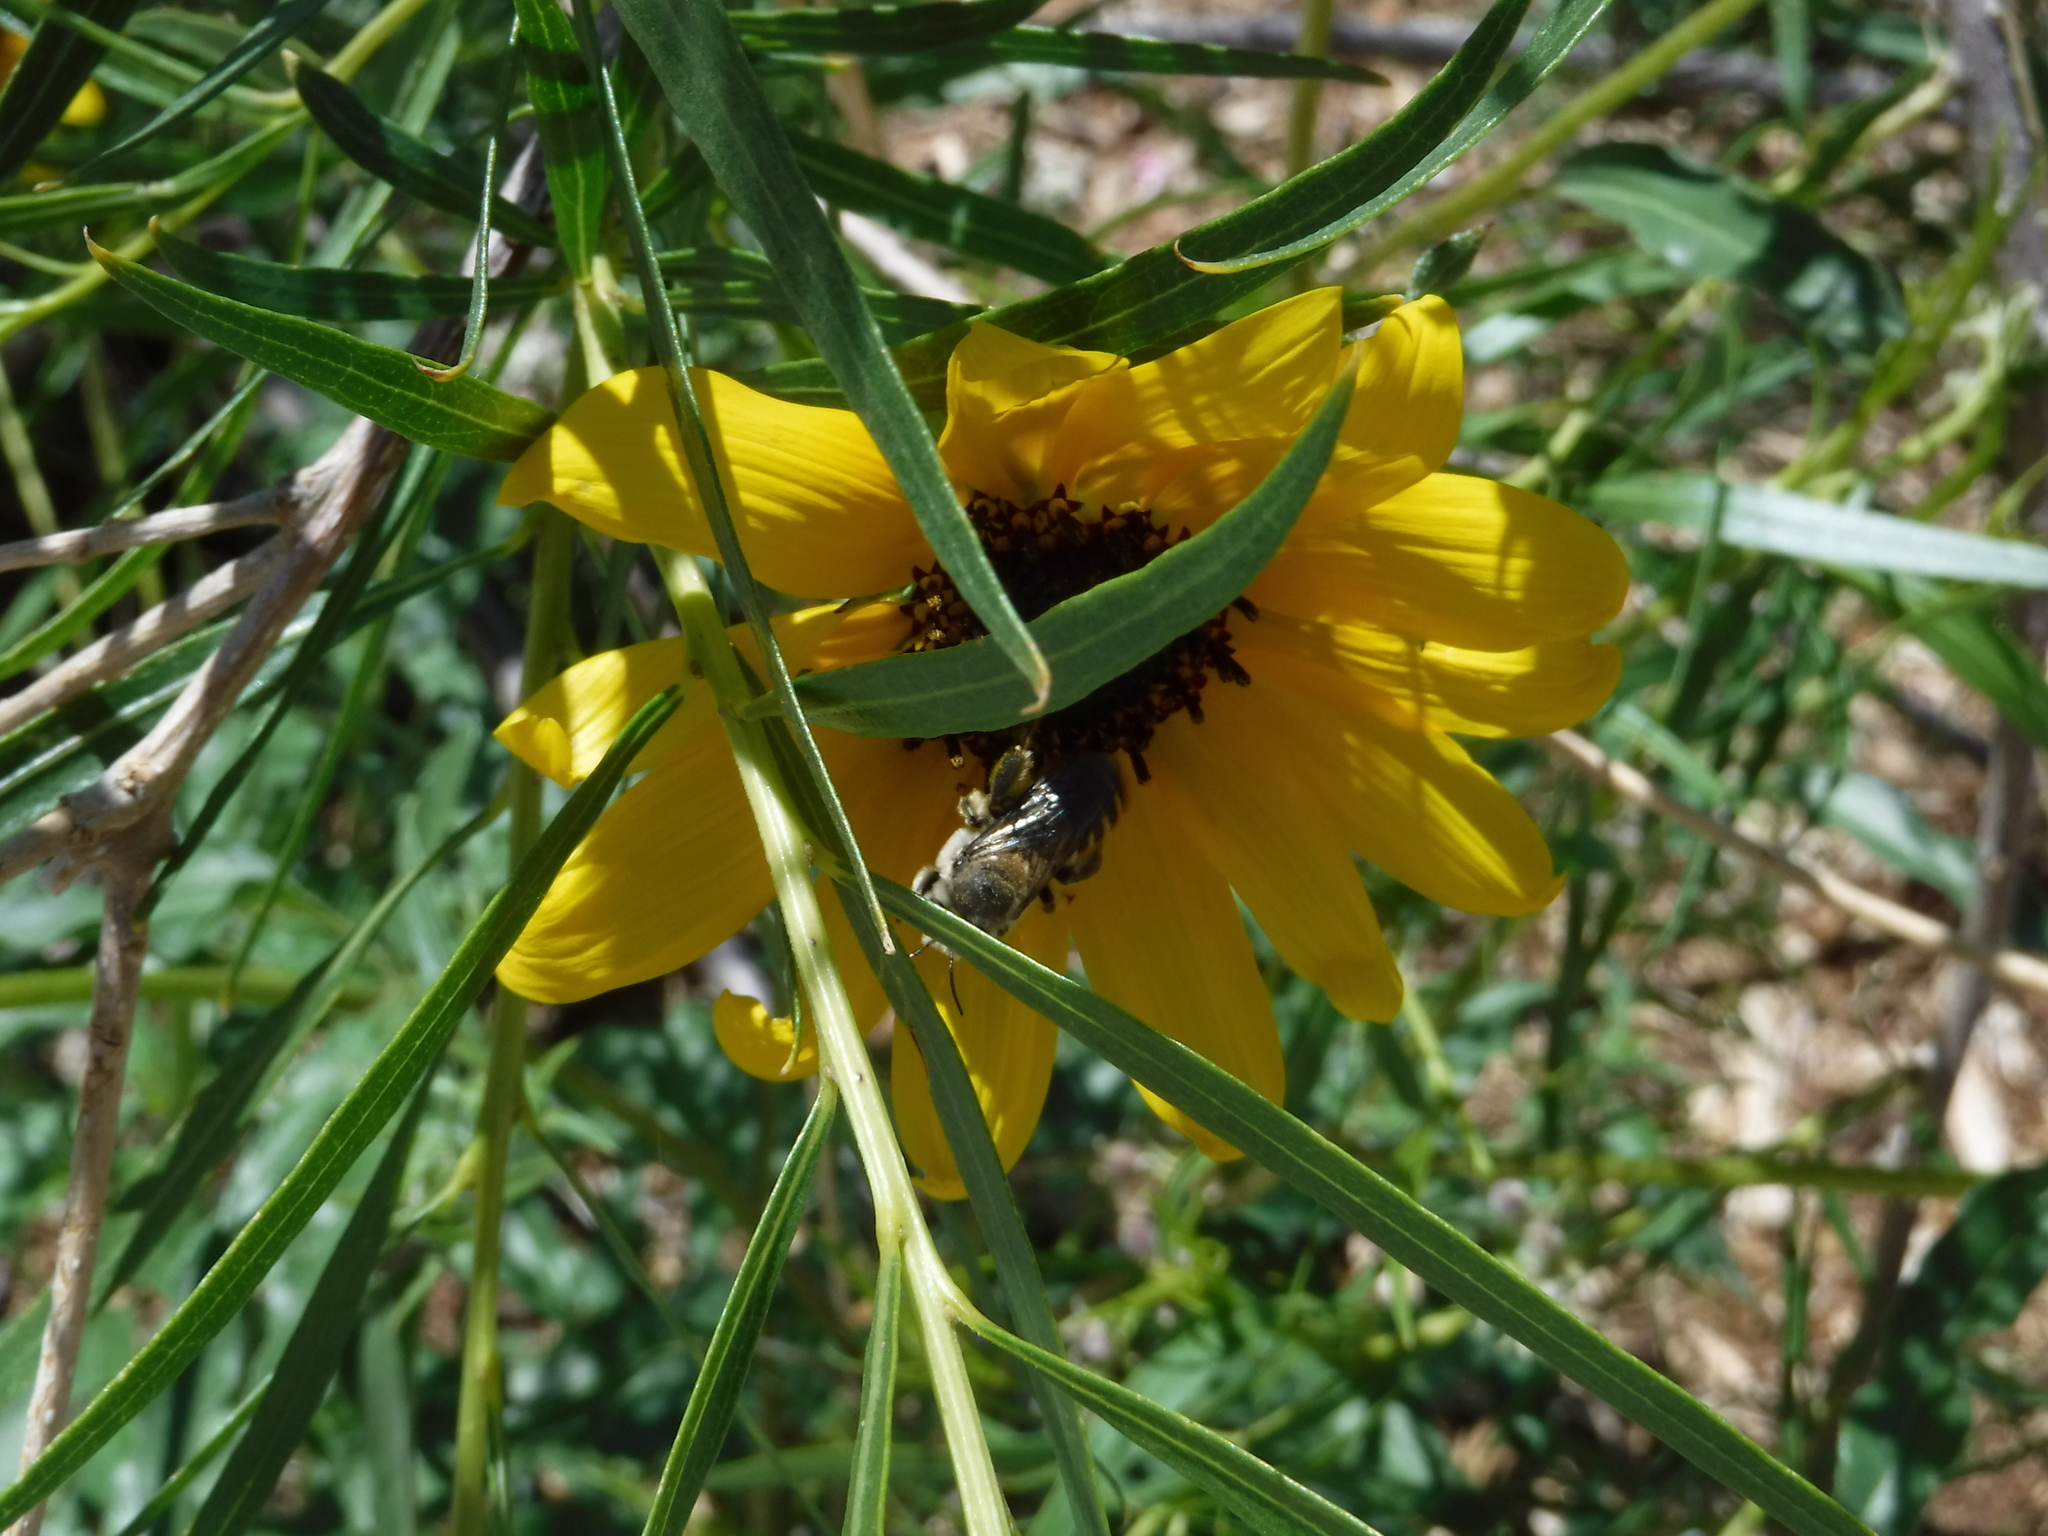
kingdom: Animalia
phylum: Arthropoda
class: Insecta
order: Hymenoptera
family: Megachilidae
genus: Lithurgopsis
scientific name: Lithurgopsis apicalis
